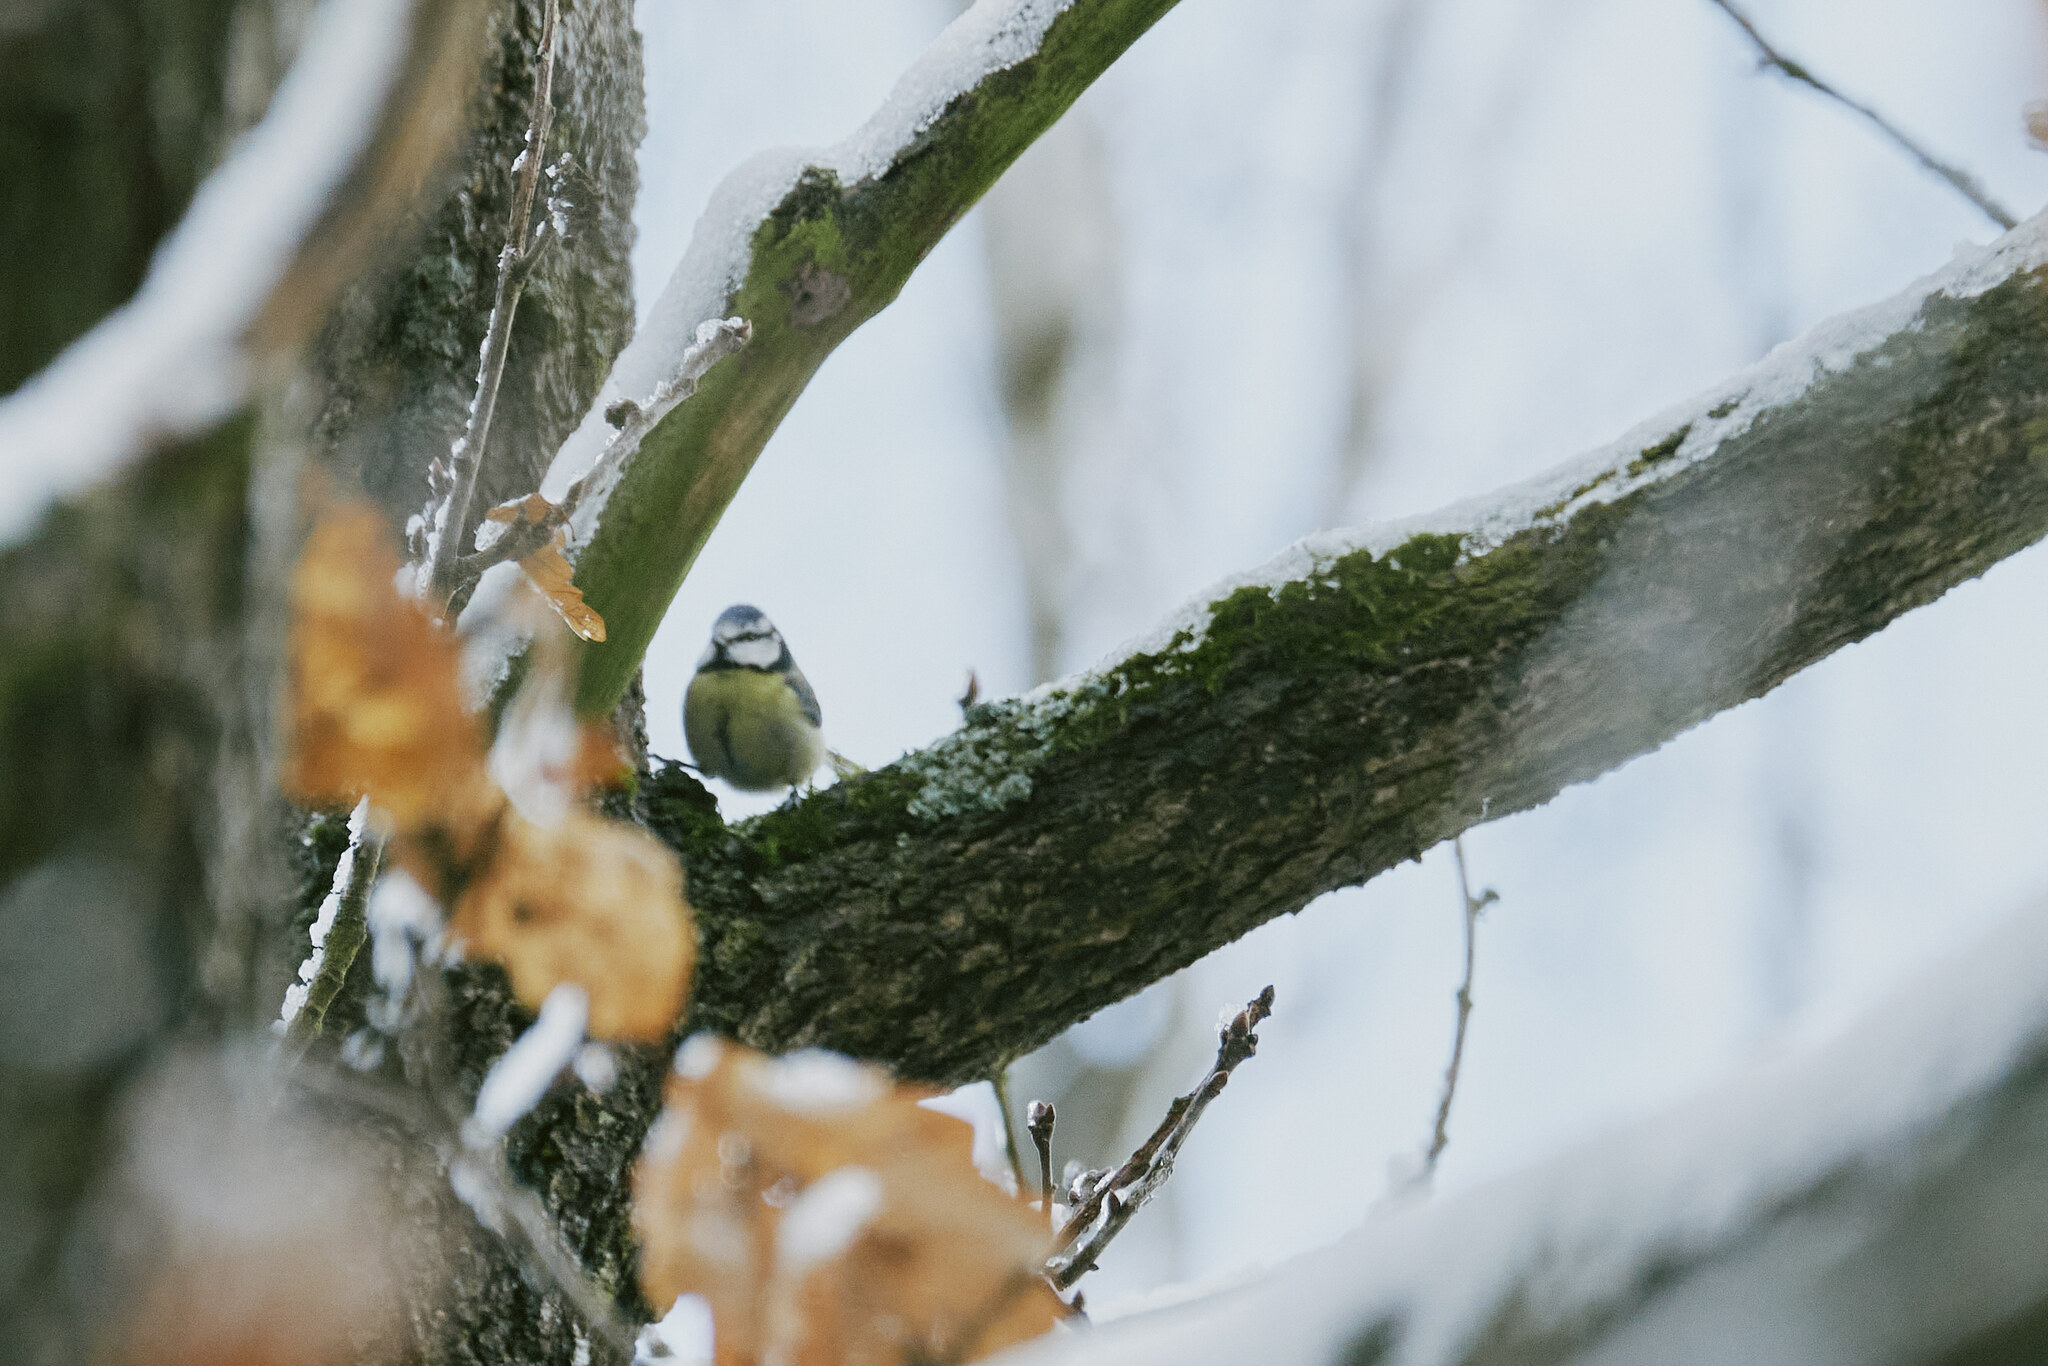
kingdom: Animalia
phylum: Chordata
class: Aves
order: Passeriformes
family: Paridae
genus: Cyanistes
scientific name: Cyanistes caeruleus
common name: Eurasian blue tit
